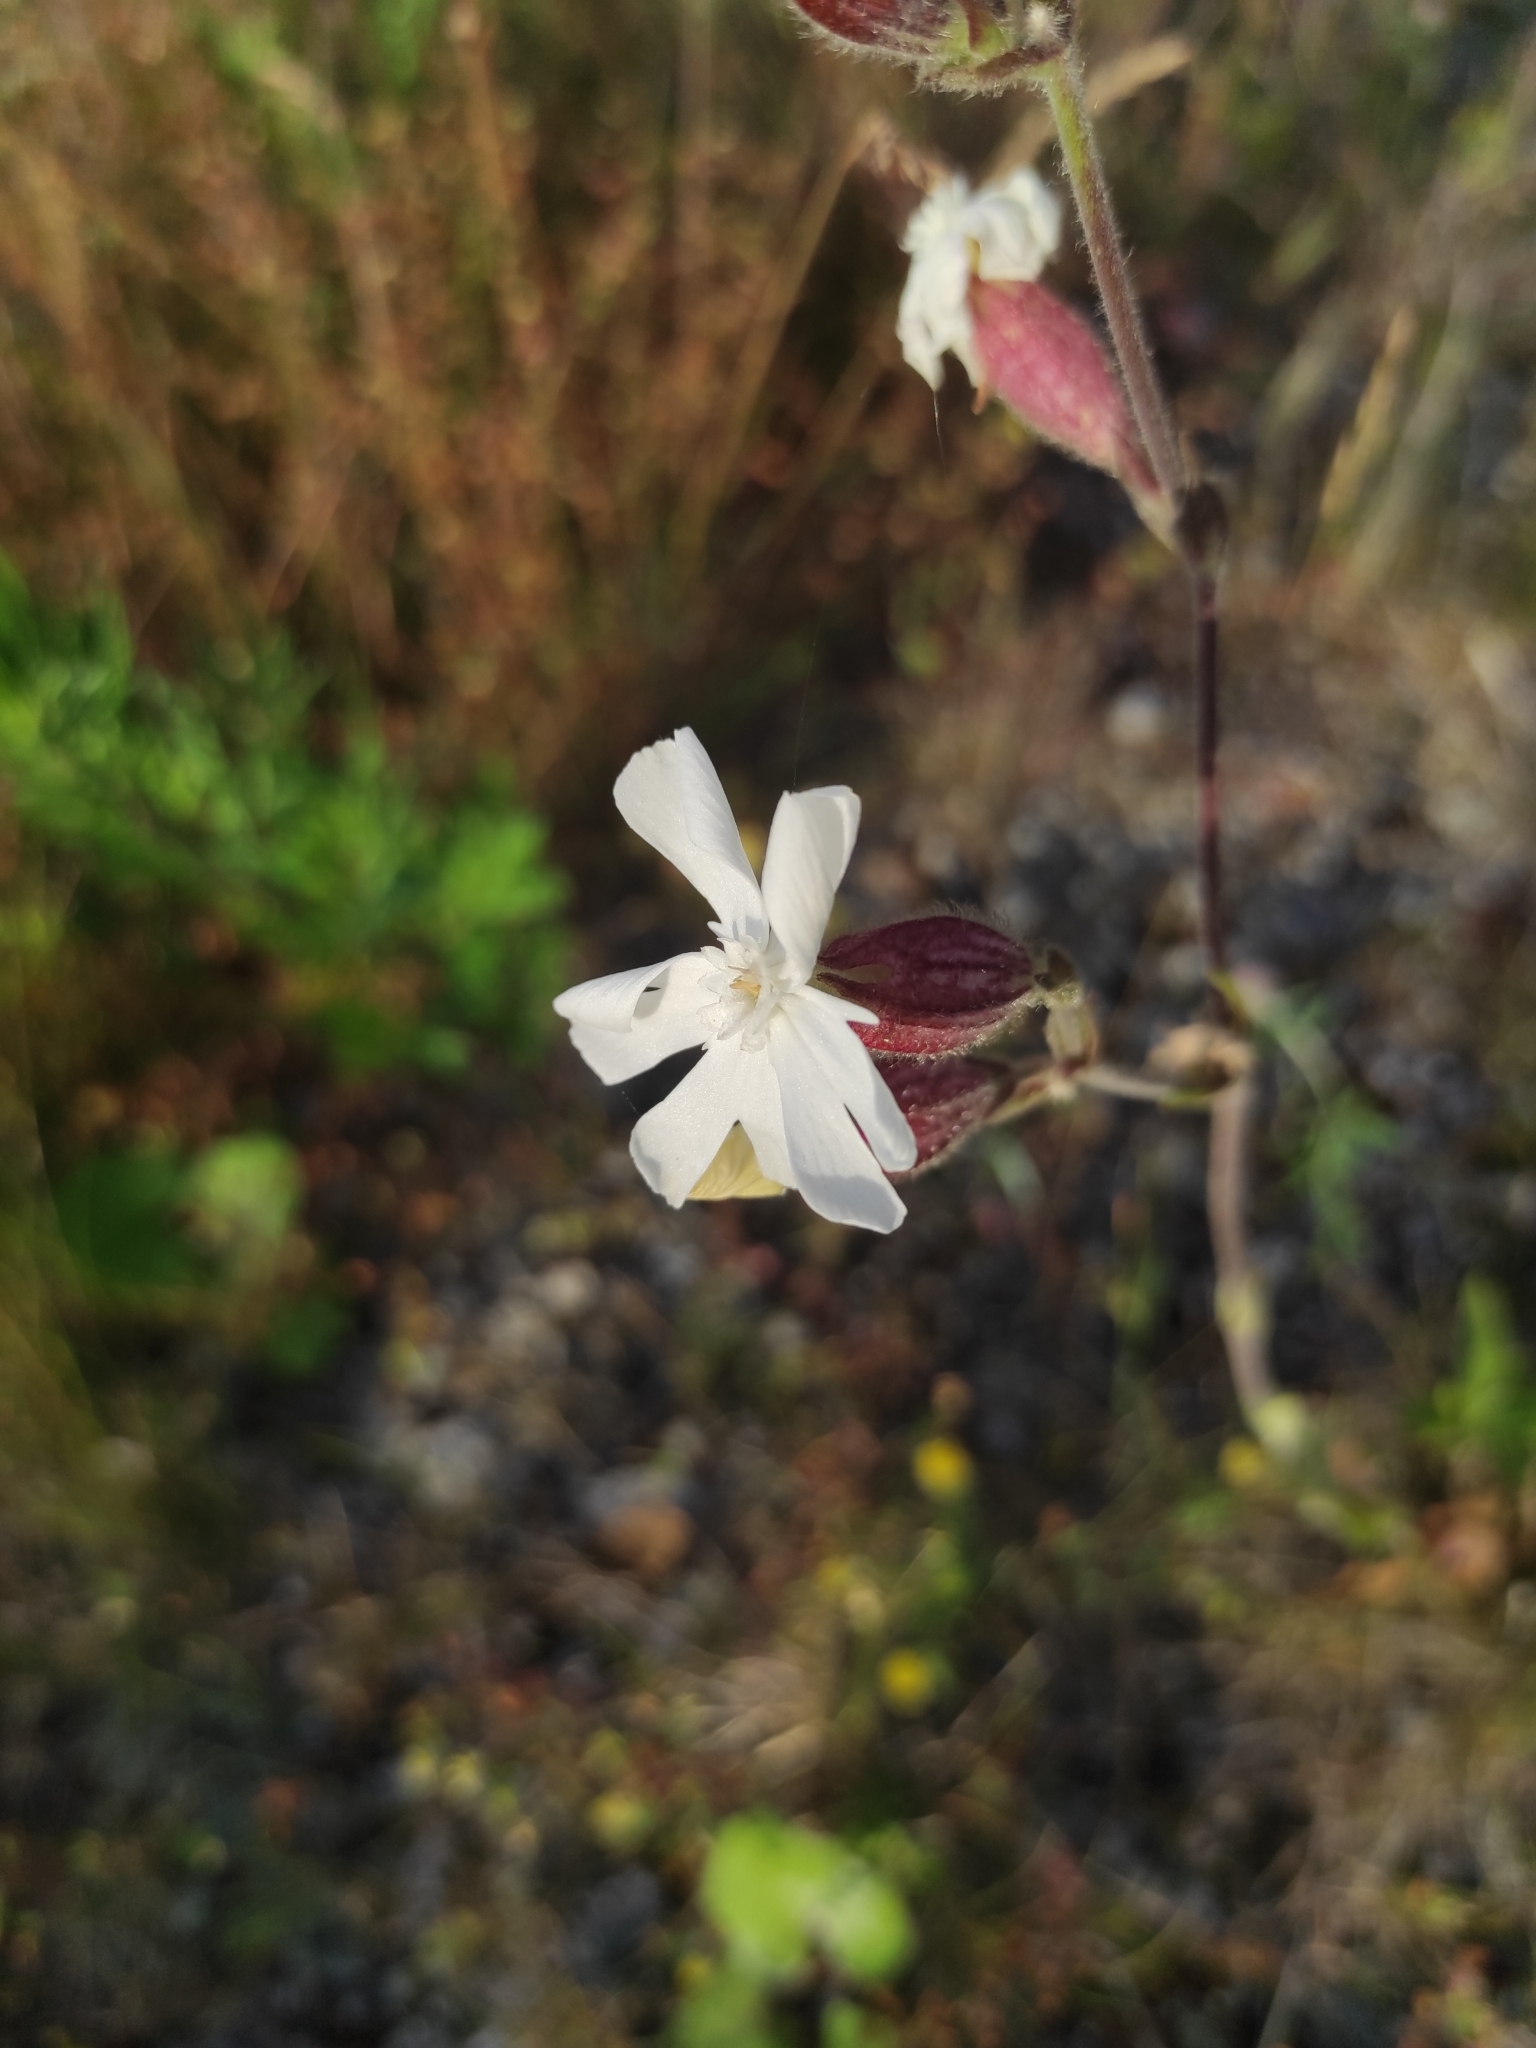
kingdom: Plantae
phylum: Tracheophyta
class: Magnoliopsida
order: Caryophyllales
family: Caryophyllaceae
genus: Silene
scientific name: Silene latifolia
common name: White campion
